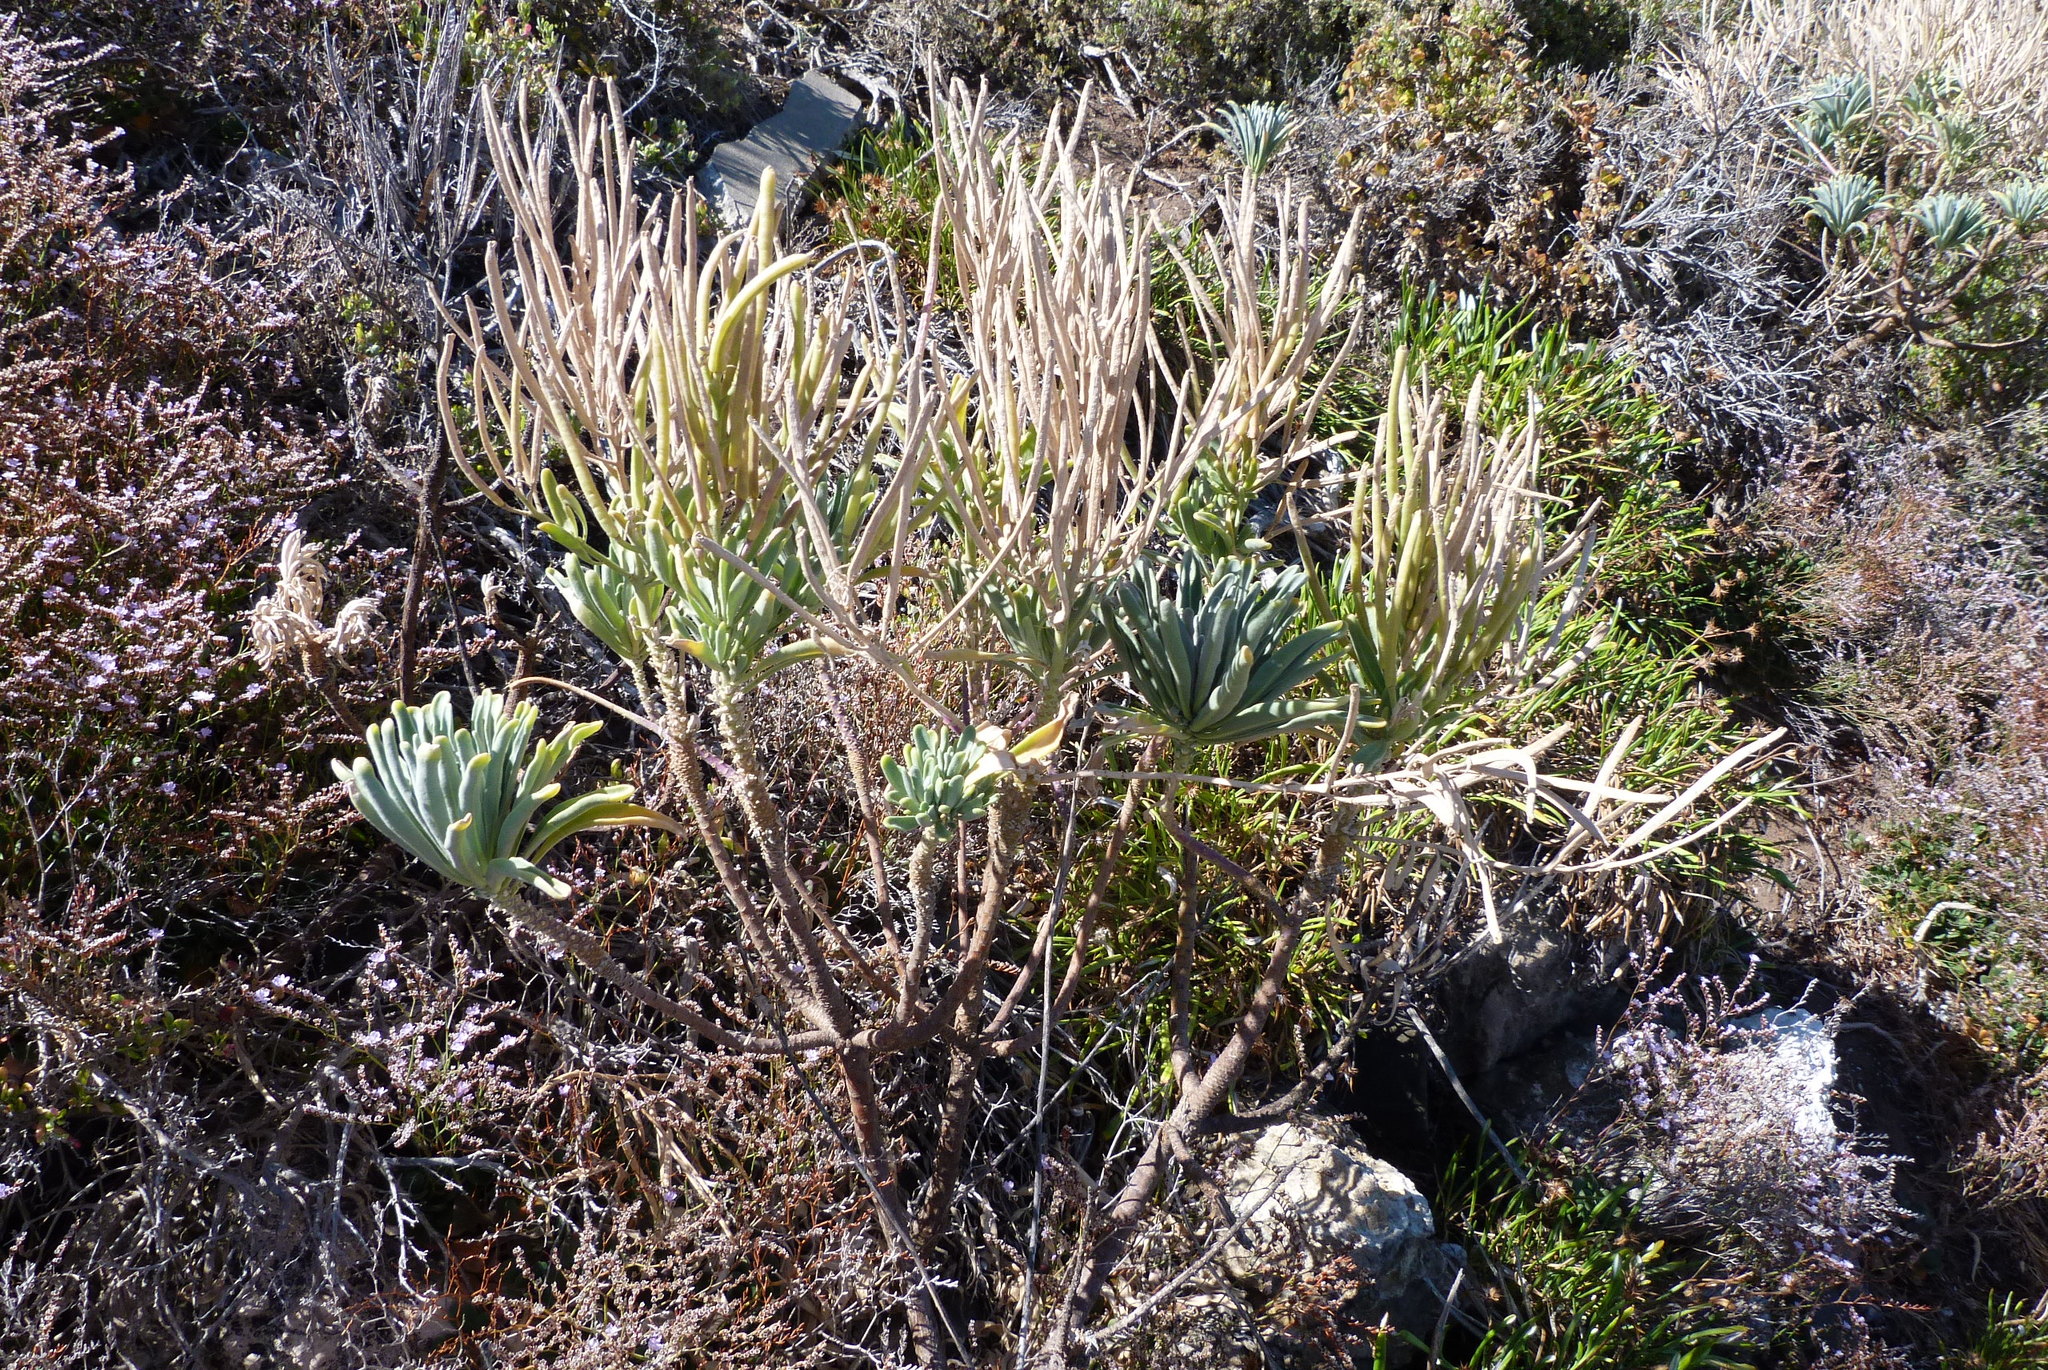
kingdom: Plantae
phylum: Tracheophyta
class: Magnoliopsida
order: Brassicales
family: Brassicaceae
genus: Matthiola
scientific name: Matthiola incana
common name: Hoary stock
